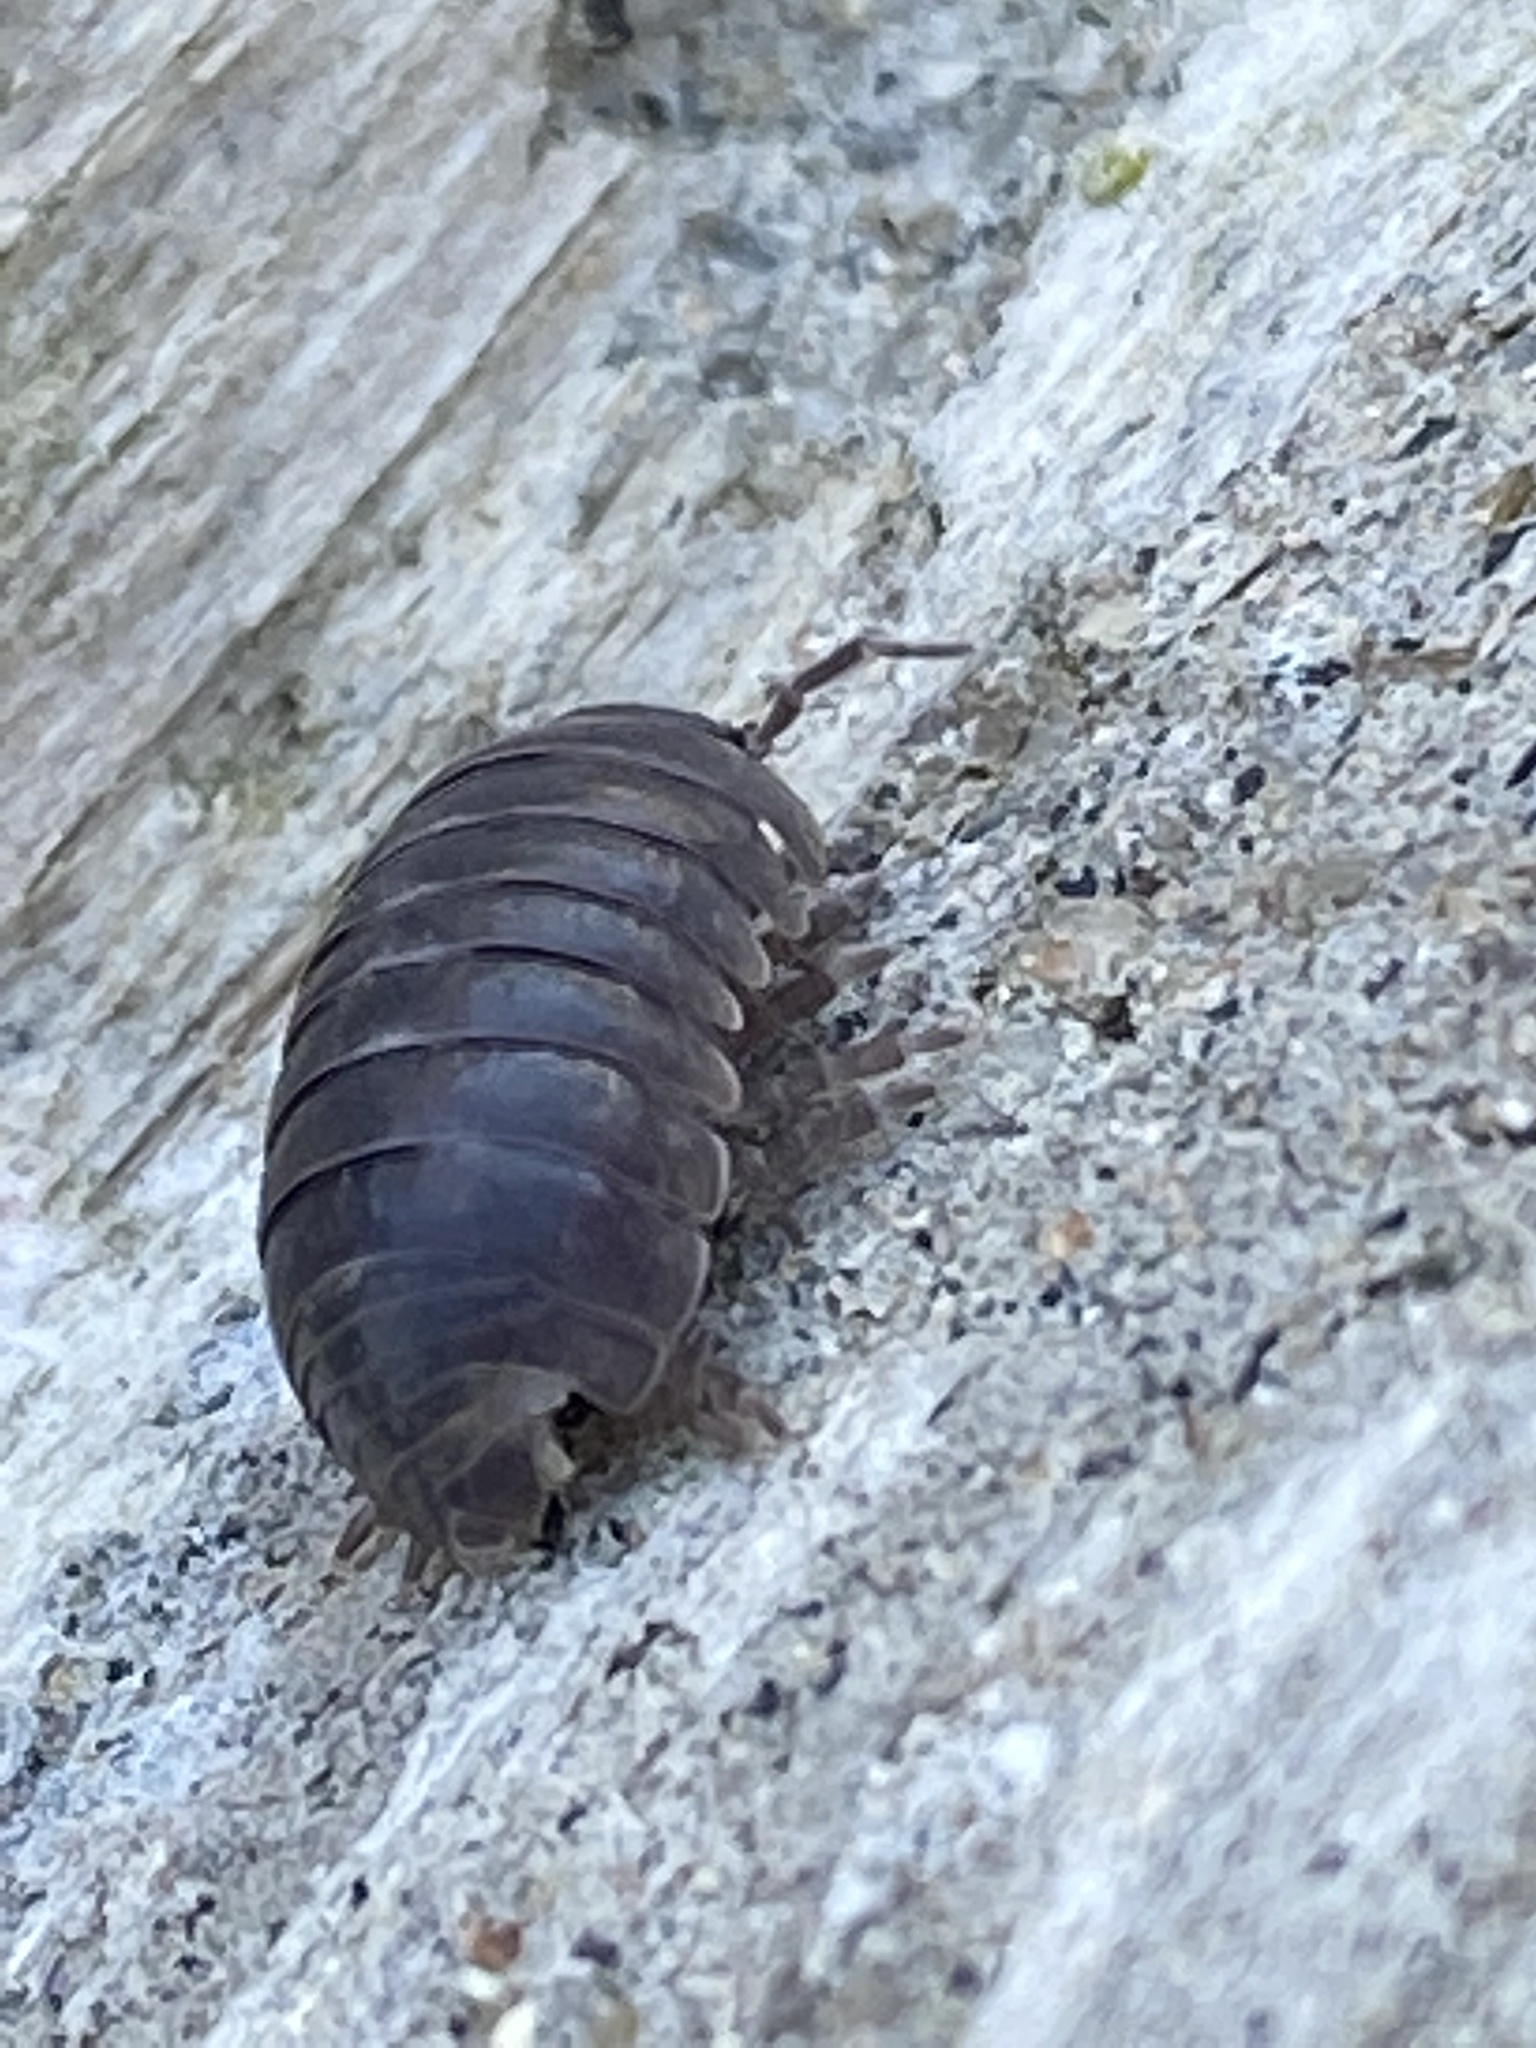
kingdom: Animalia
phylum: Arthropoda
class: Malacostraca
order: Isopoda
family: Armadillidiidae
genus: Armadillidium
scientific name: Armadillidium vulgare
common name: Common pill woodlouse
